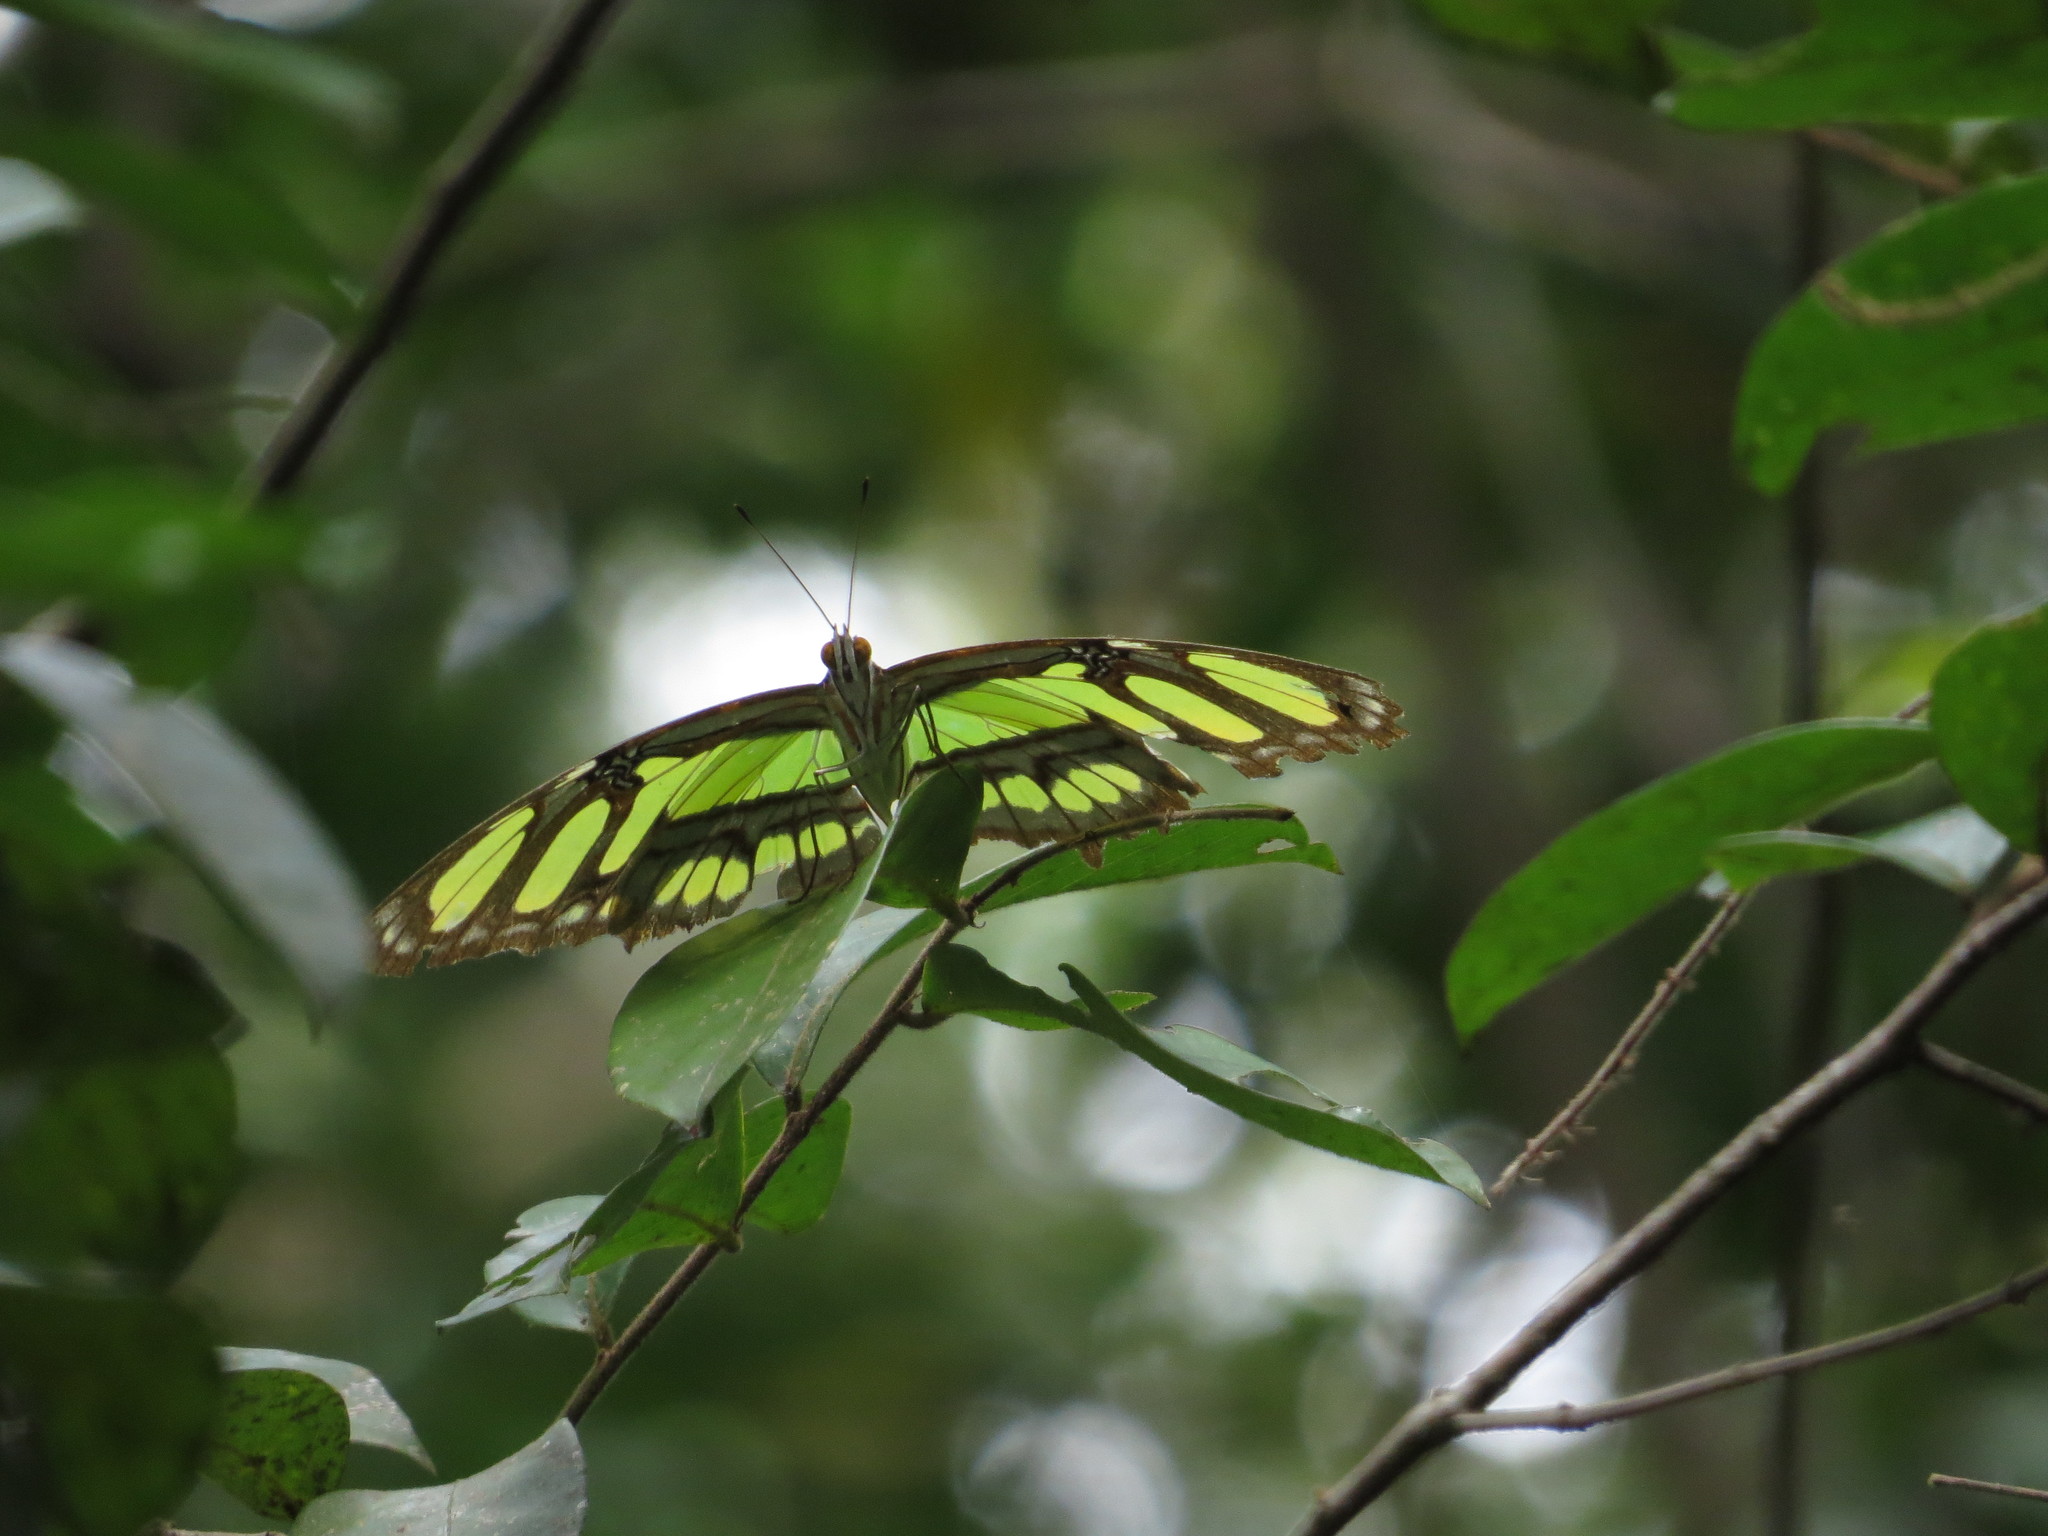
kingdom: Animalia
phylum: Arthropoda
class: Insecta
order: Lepidoptera
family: Nymphalidae
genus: Siproeta
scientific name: Siproeta stelenes
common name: Malachite
